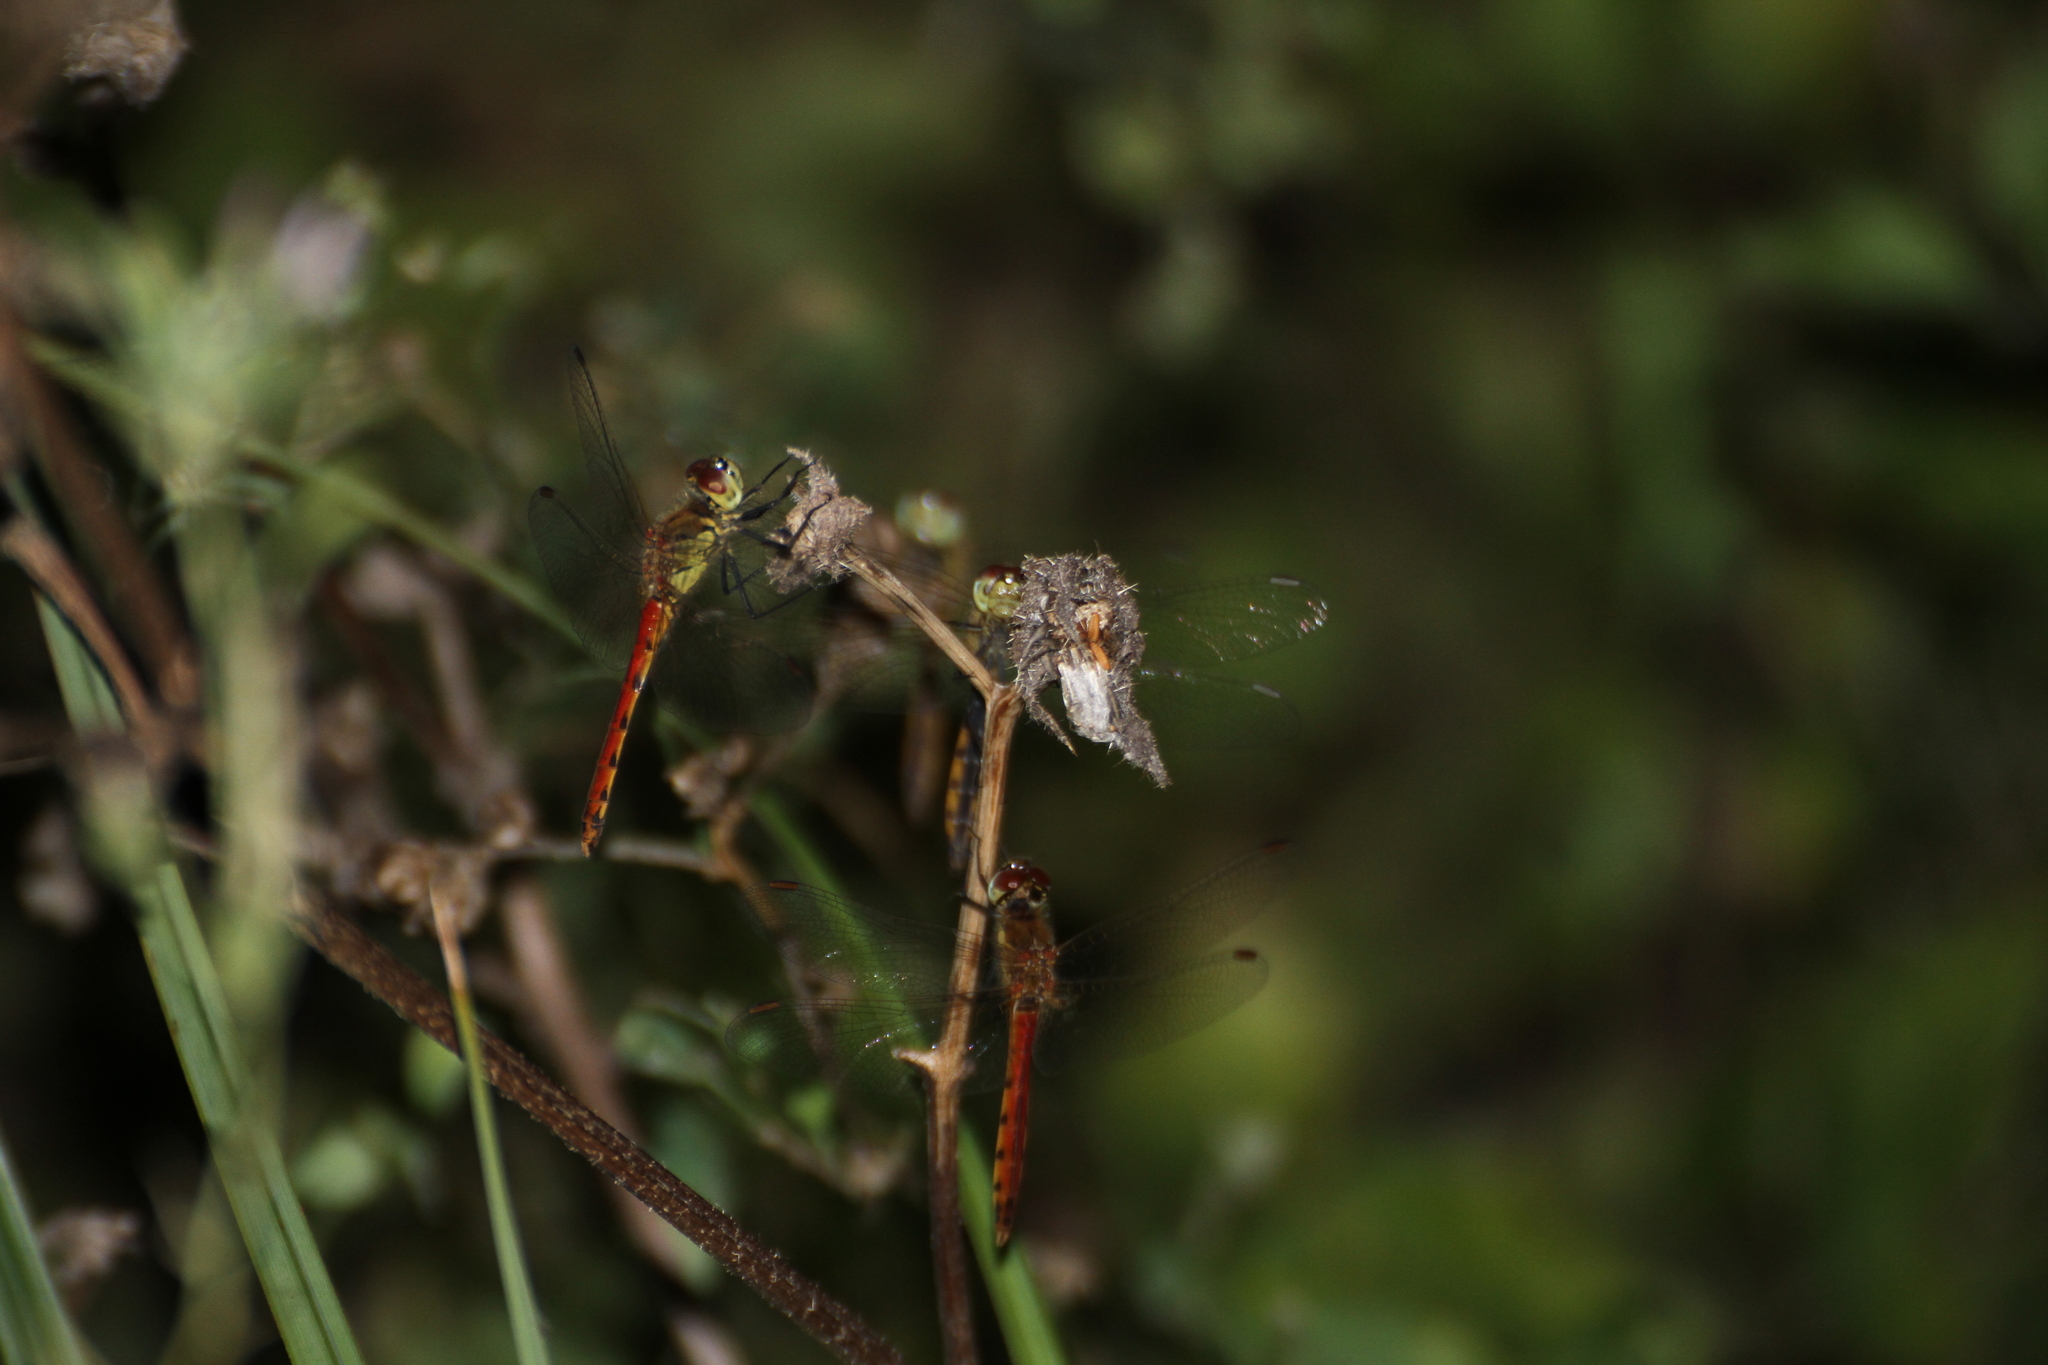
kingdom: Animalia
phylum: Arthropoda
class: Insecta
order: Odonata
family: Libellulidae
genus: Sympetrum
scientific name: Sympetrum depressiusculum
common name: Spotted darter
